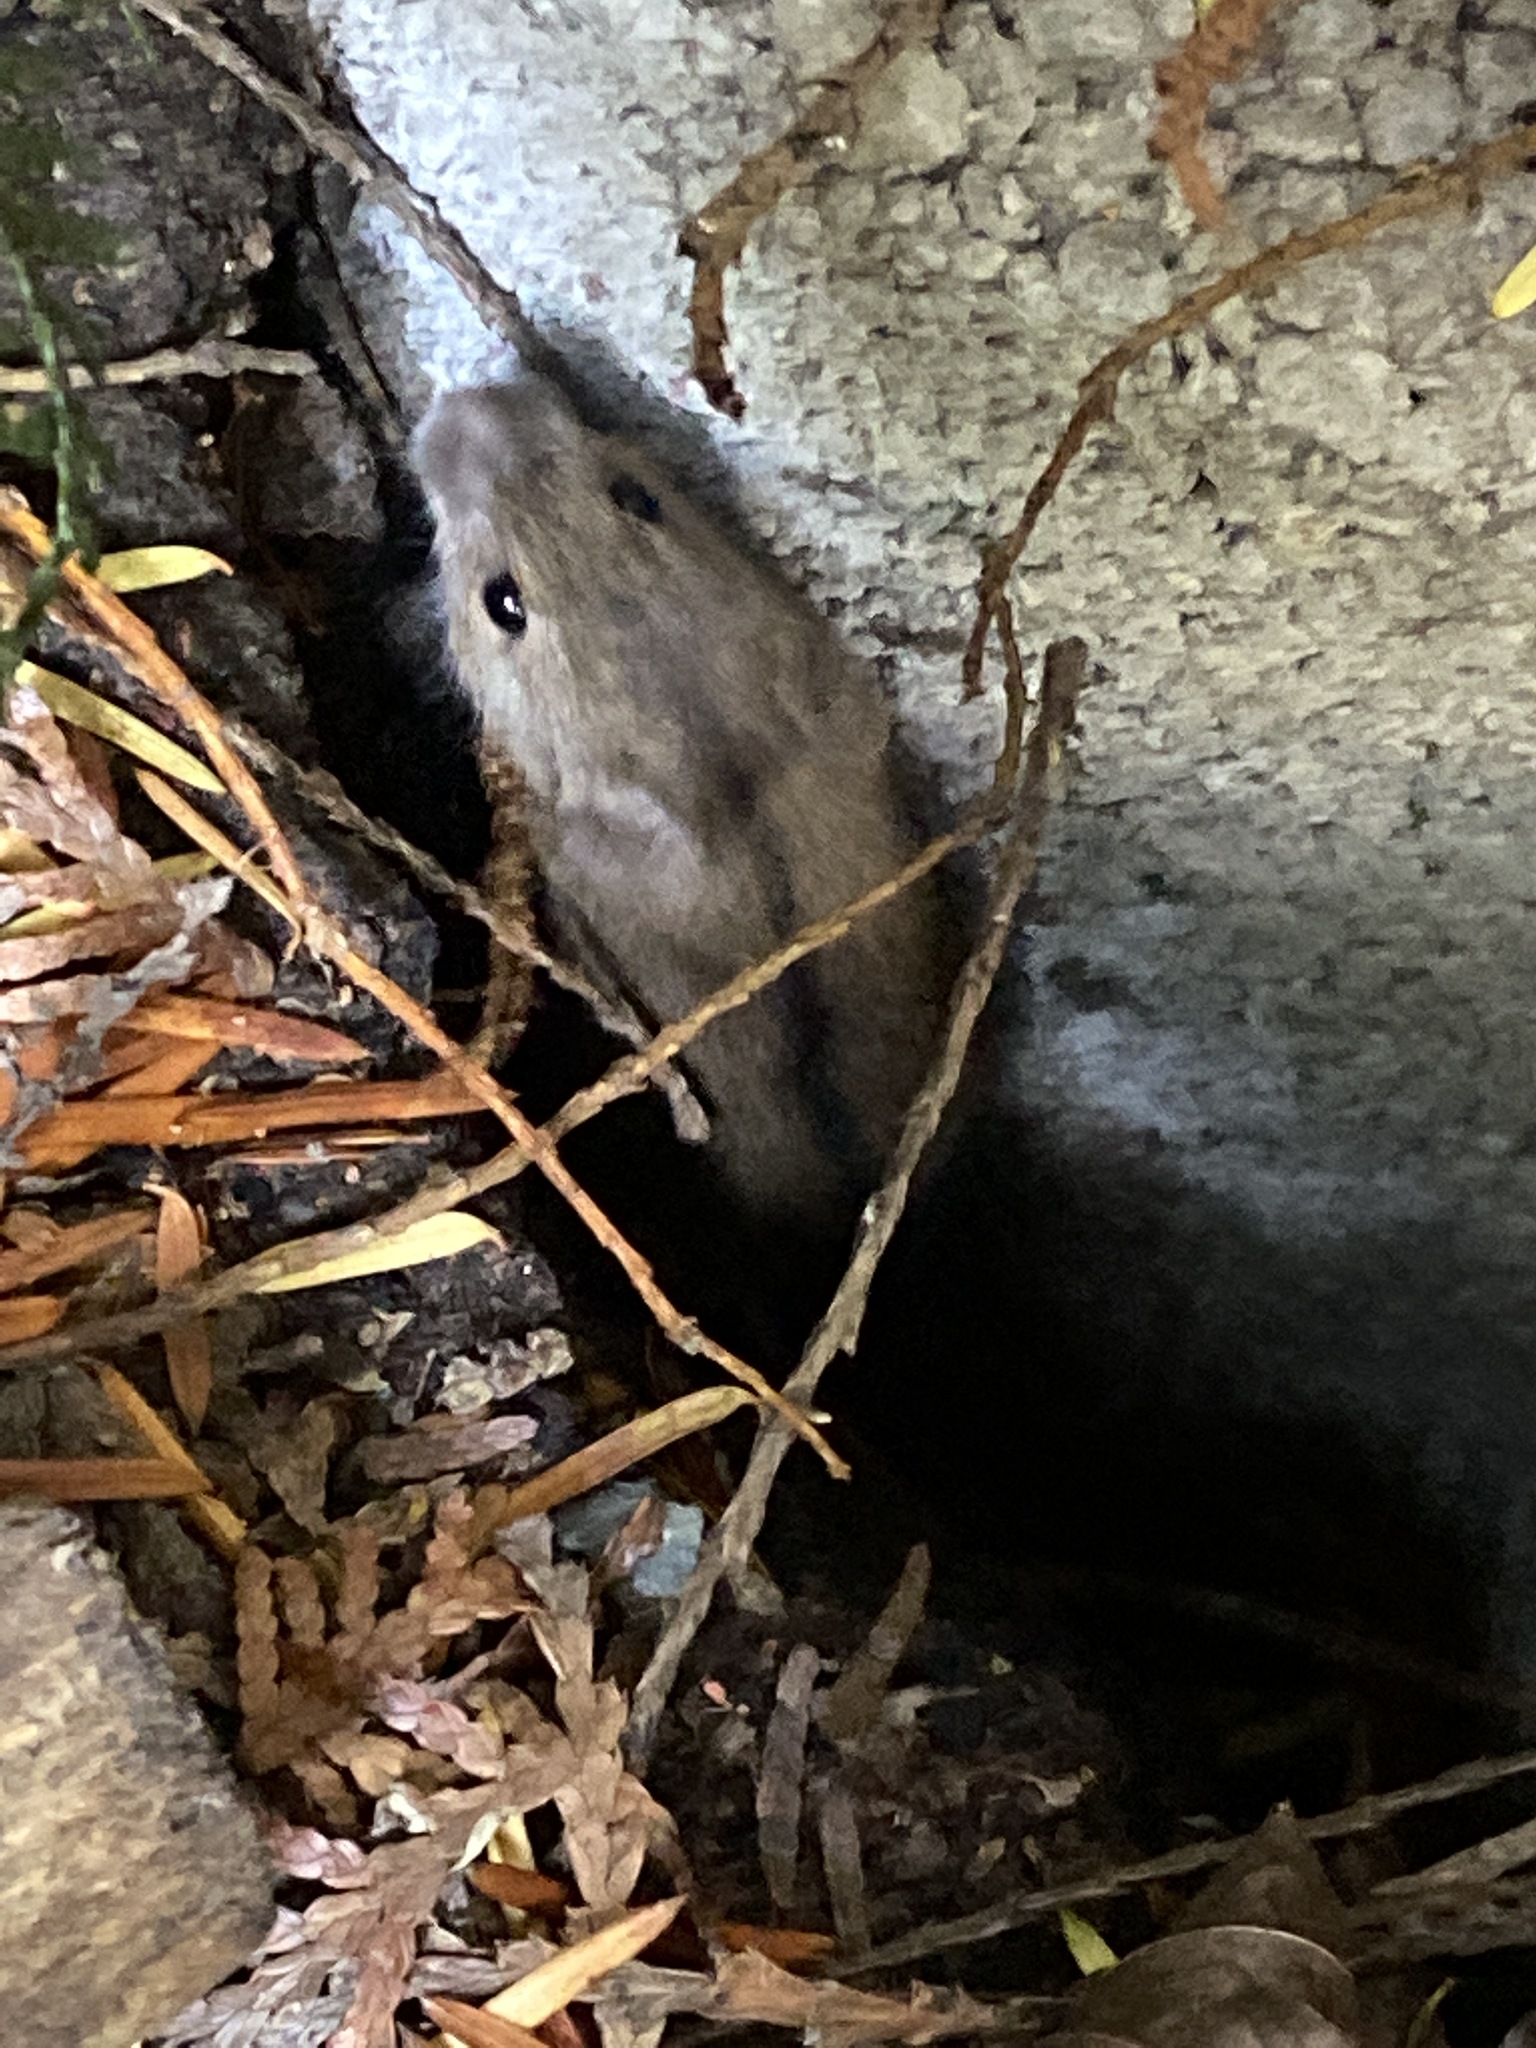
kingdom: Animalia
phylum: Chordata
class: Mammalia
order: Rodentia
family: Muridae
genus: Apodemus
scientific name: Apodemus agrarius
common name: Striped field mouse
